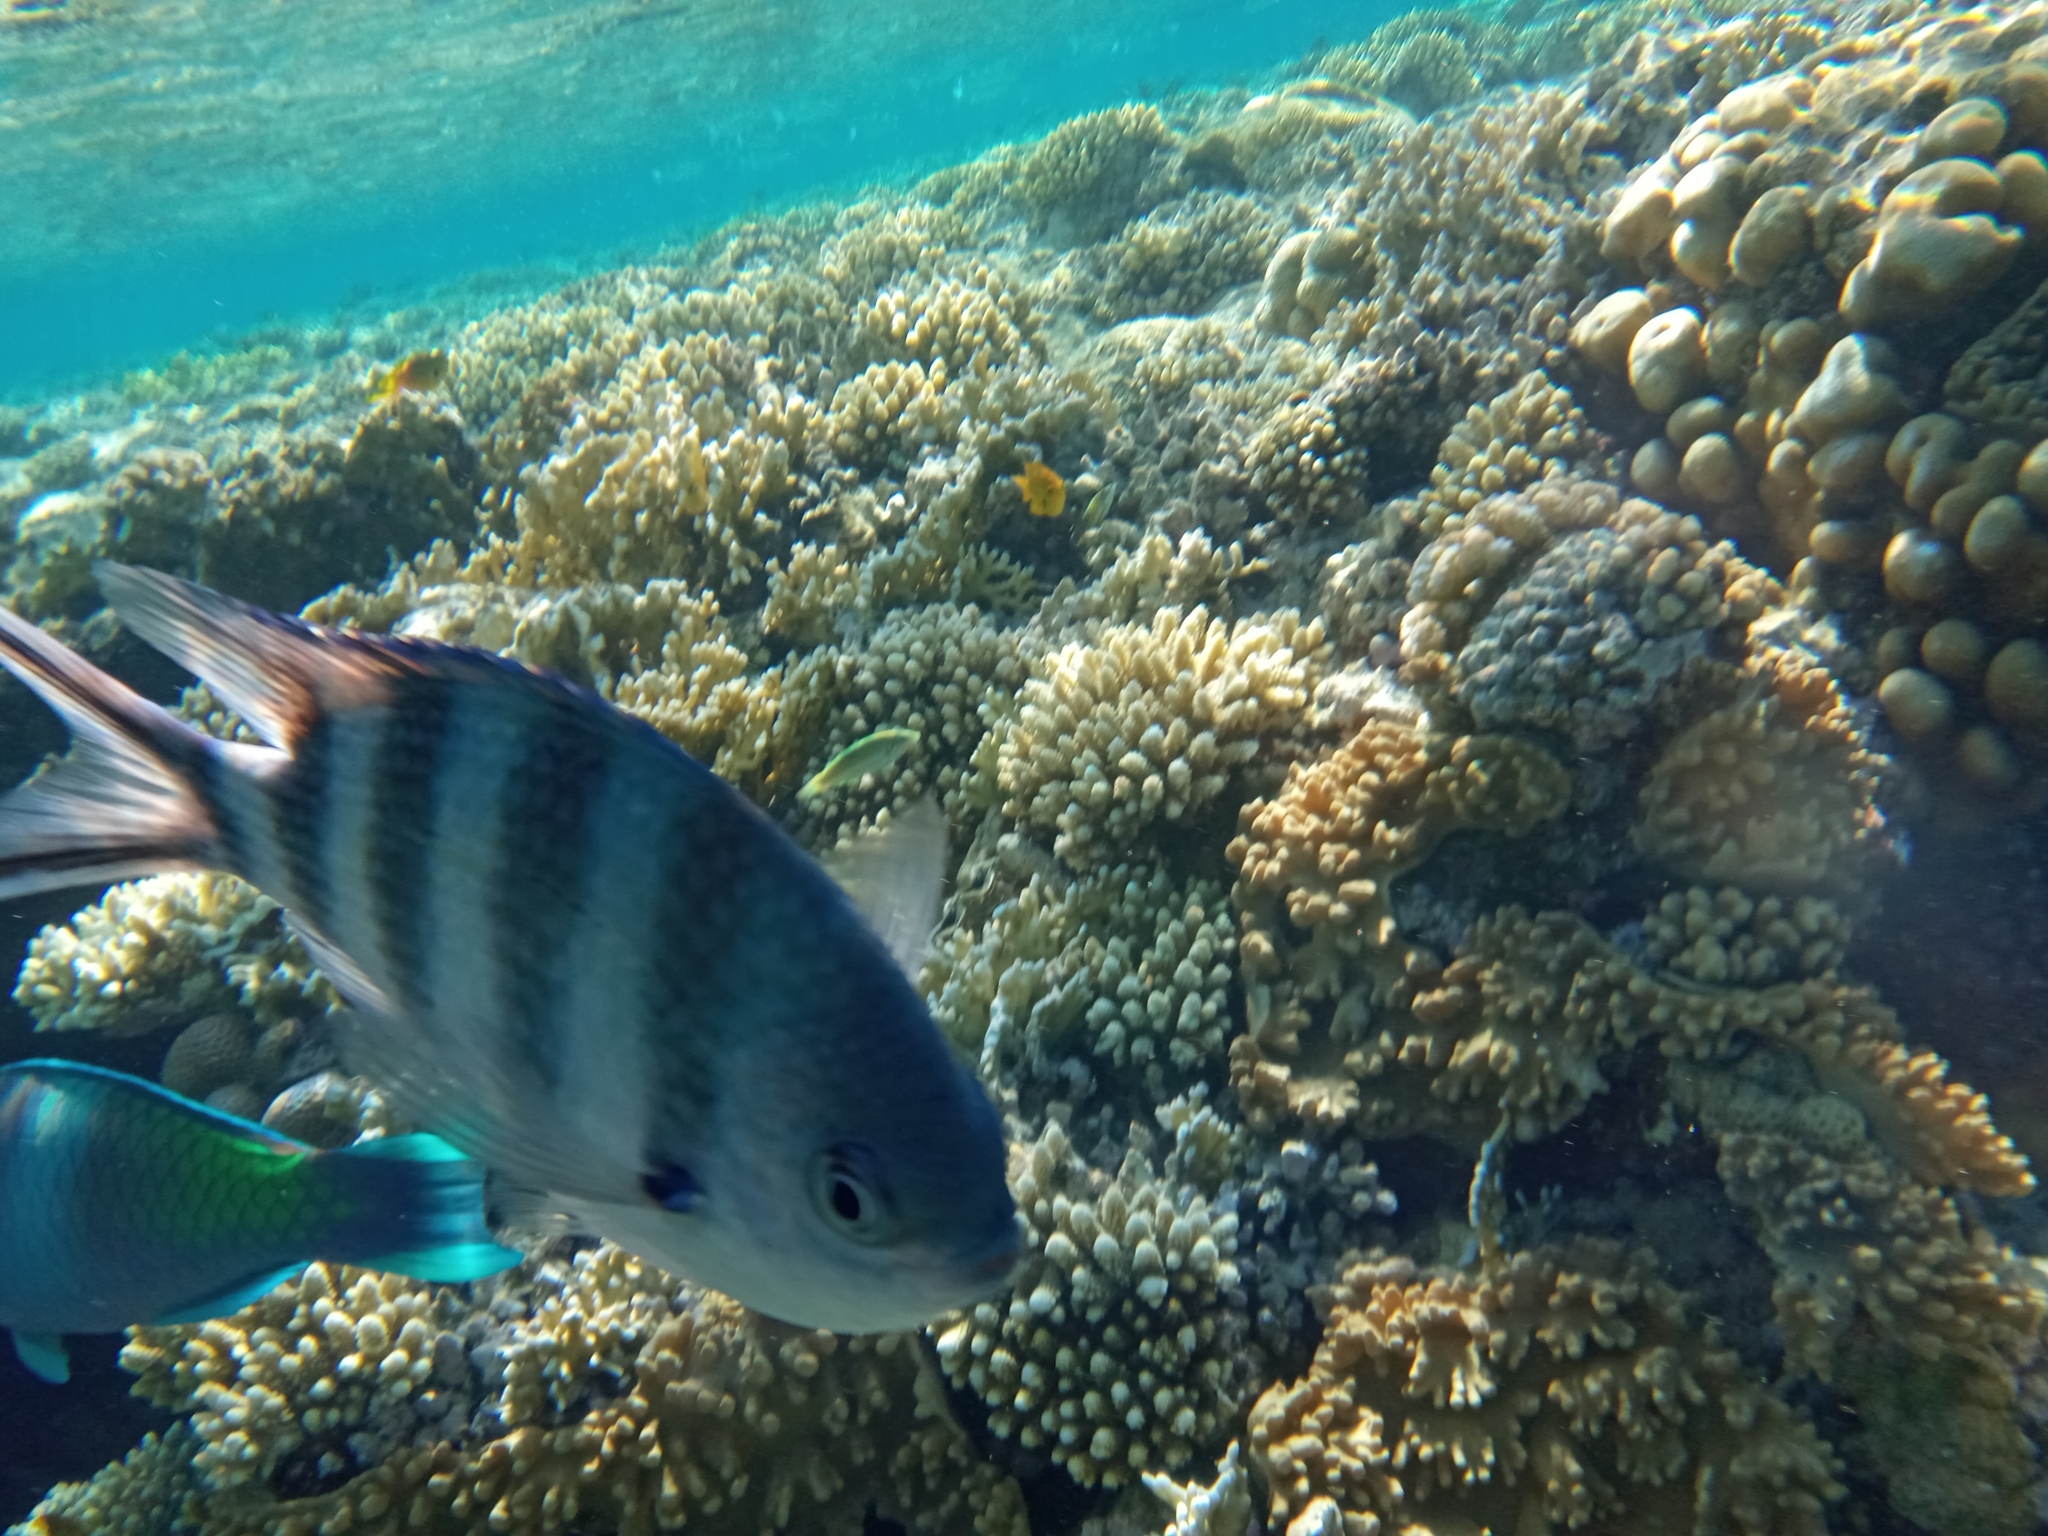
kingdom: Animalia
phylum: Chordata
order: Perciformes
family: Pomacentridae
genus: Abudefduf
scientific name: Abudefduf sexfasciatus
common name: Scissortail sergeant
